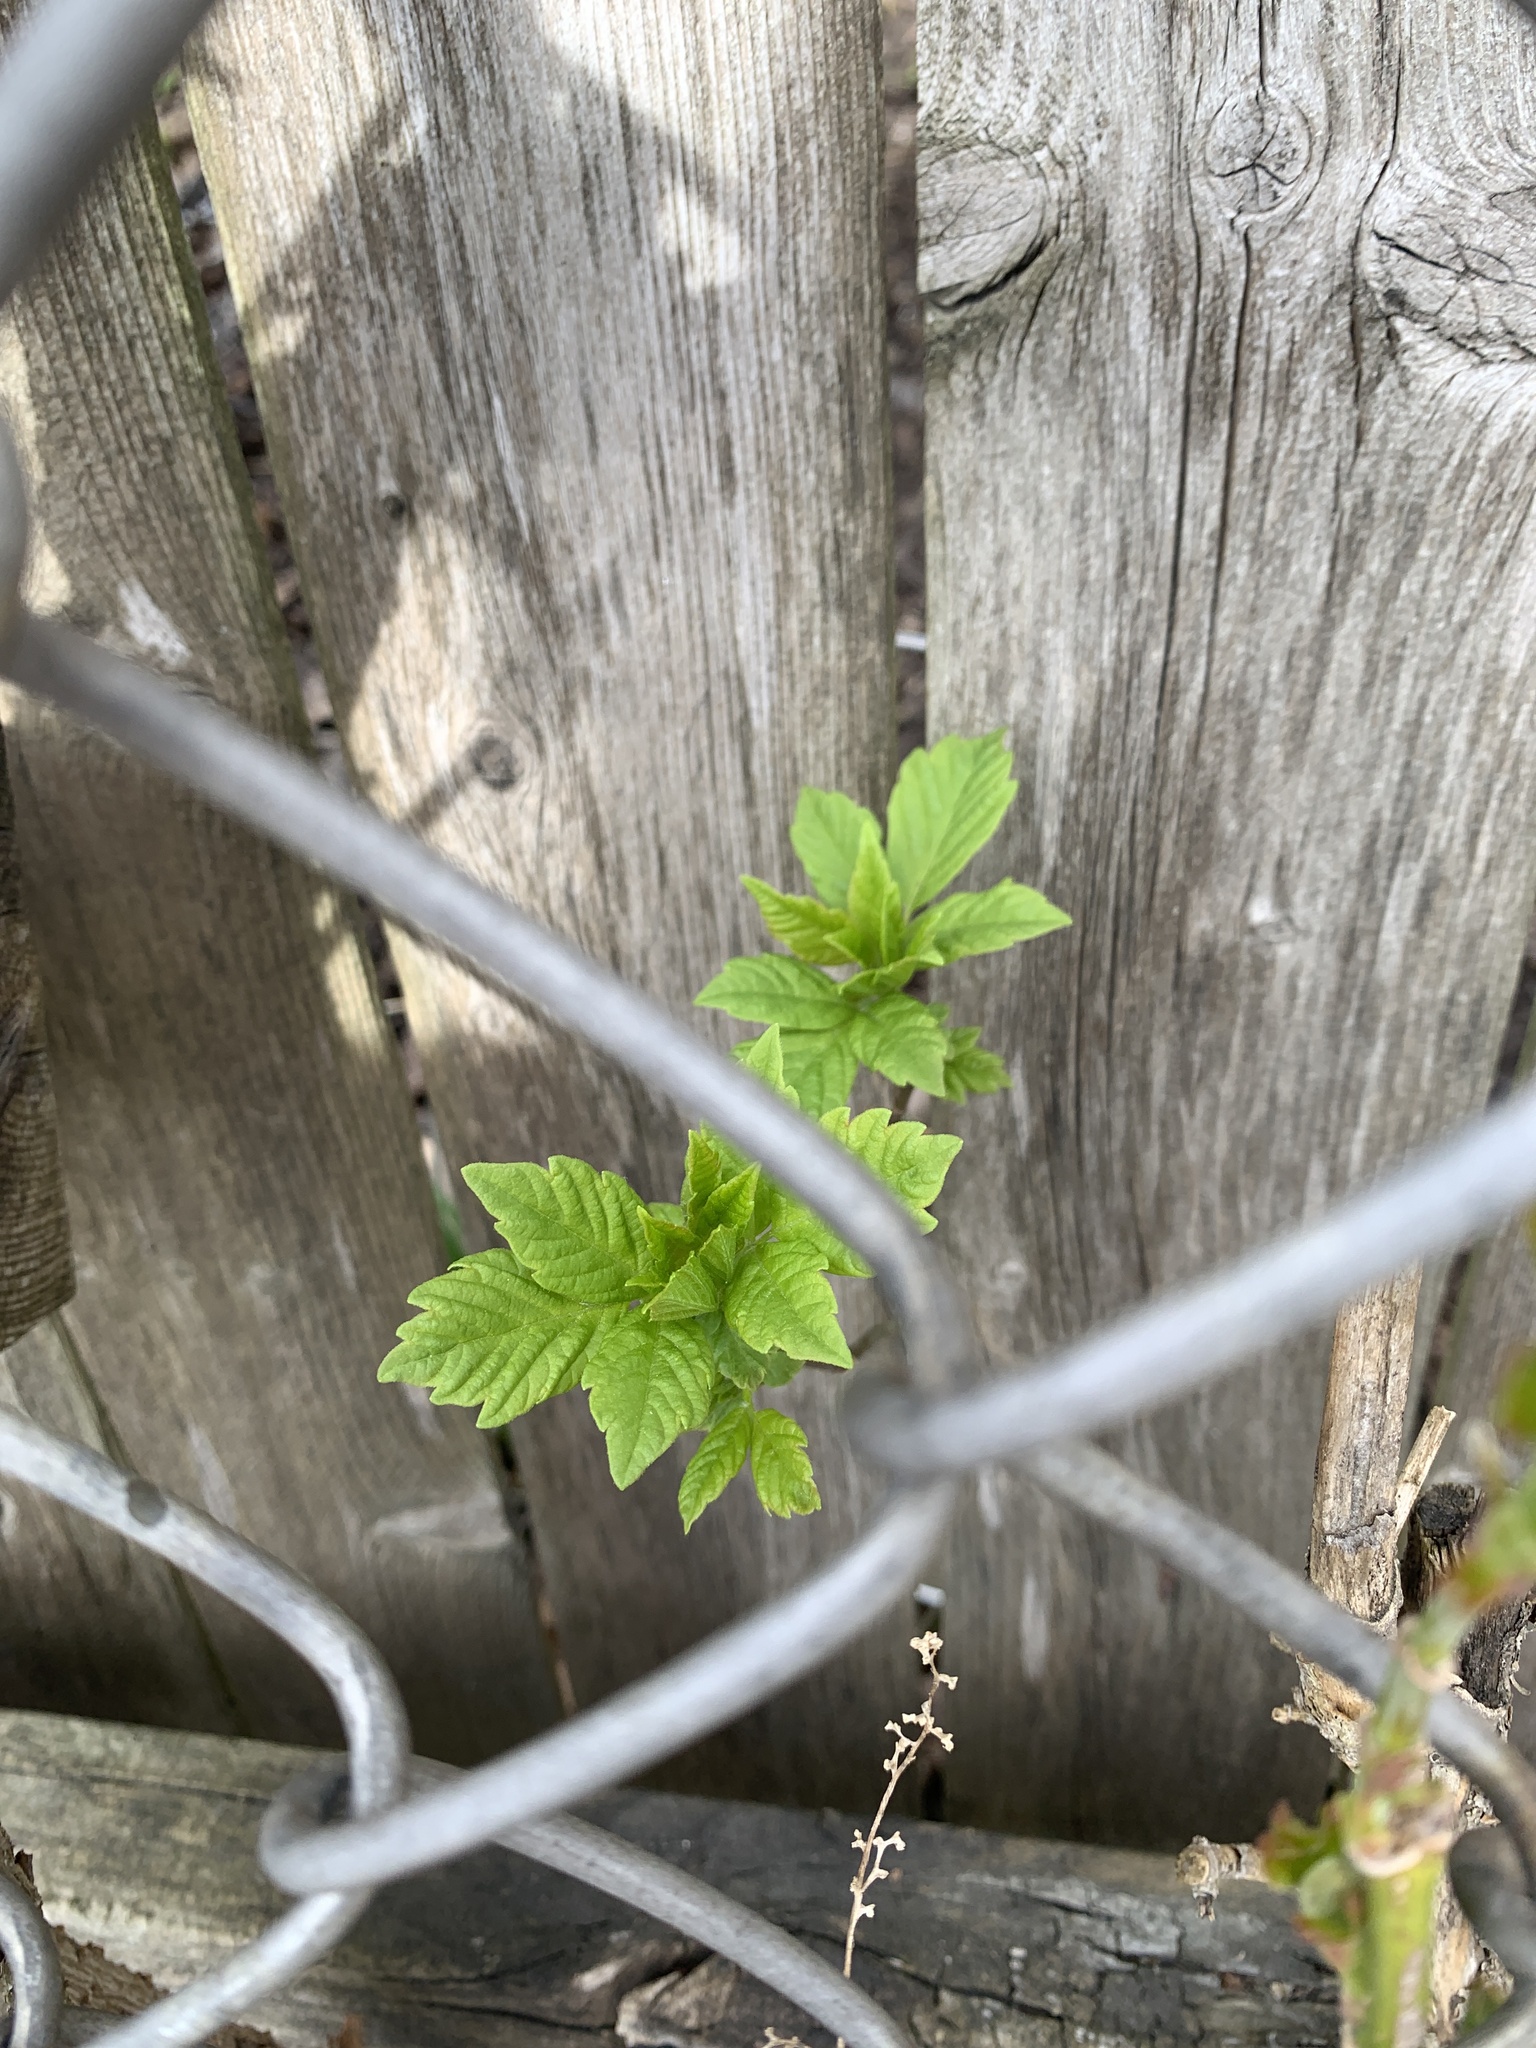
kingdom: Plantae
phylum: Tracheophyta
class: Magnoliopsida
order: Sapindales
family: Sapindaceae
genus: Acer
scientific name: Acer negundo
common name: Ashleaf maple
